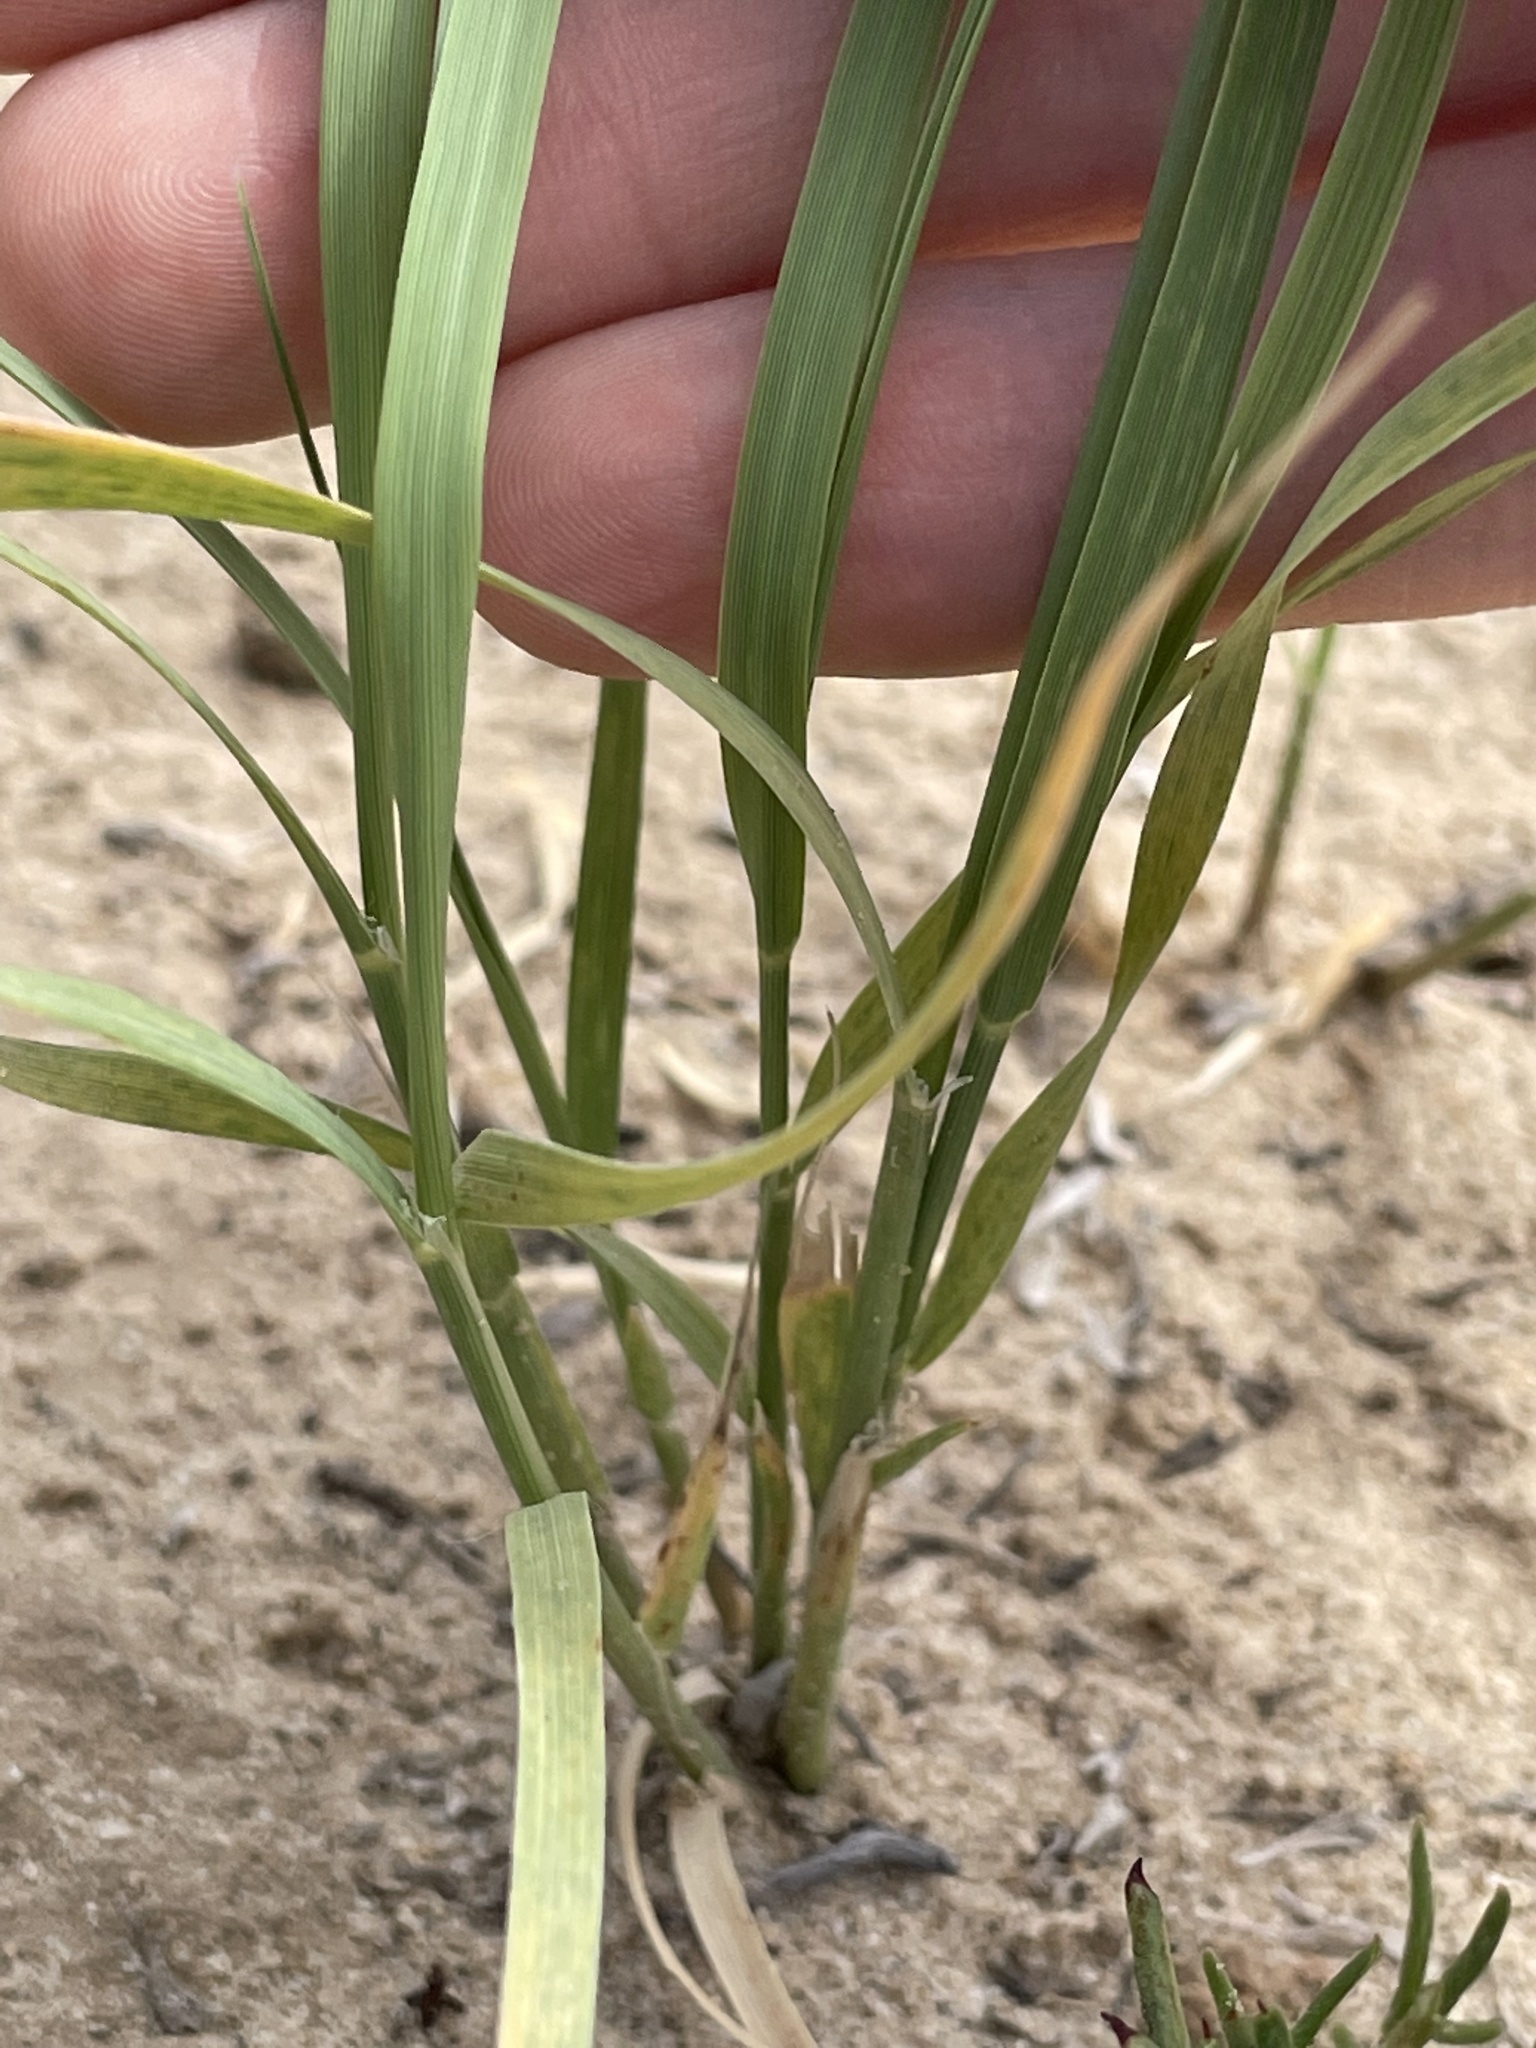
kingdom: Plantae
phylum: Tracheophyta
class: Liliopsida
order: Poales
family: Poaceae
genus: Hilaria
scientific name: Hilaria jamesii
